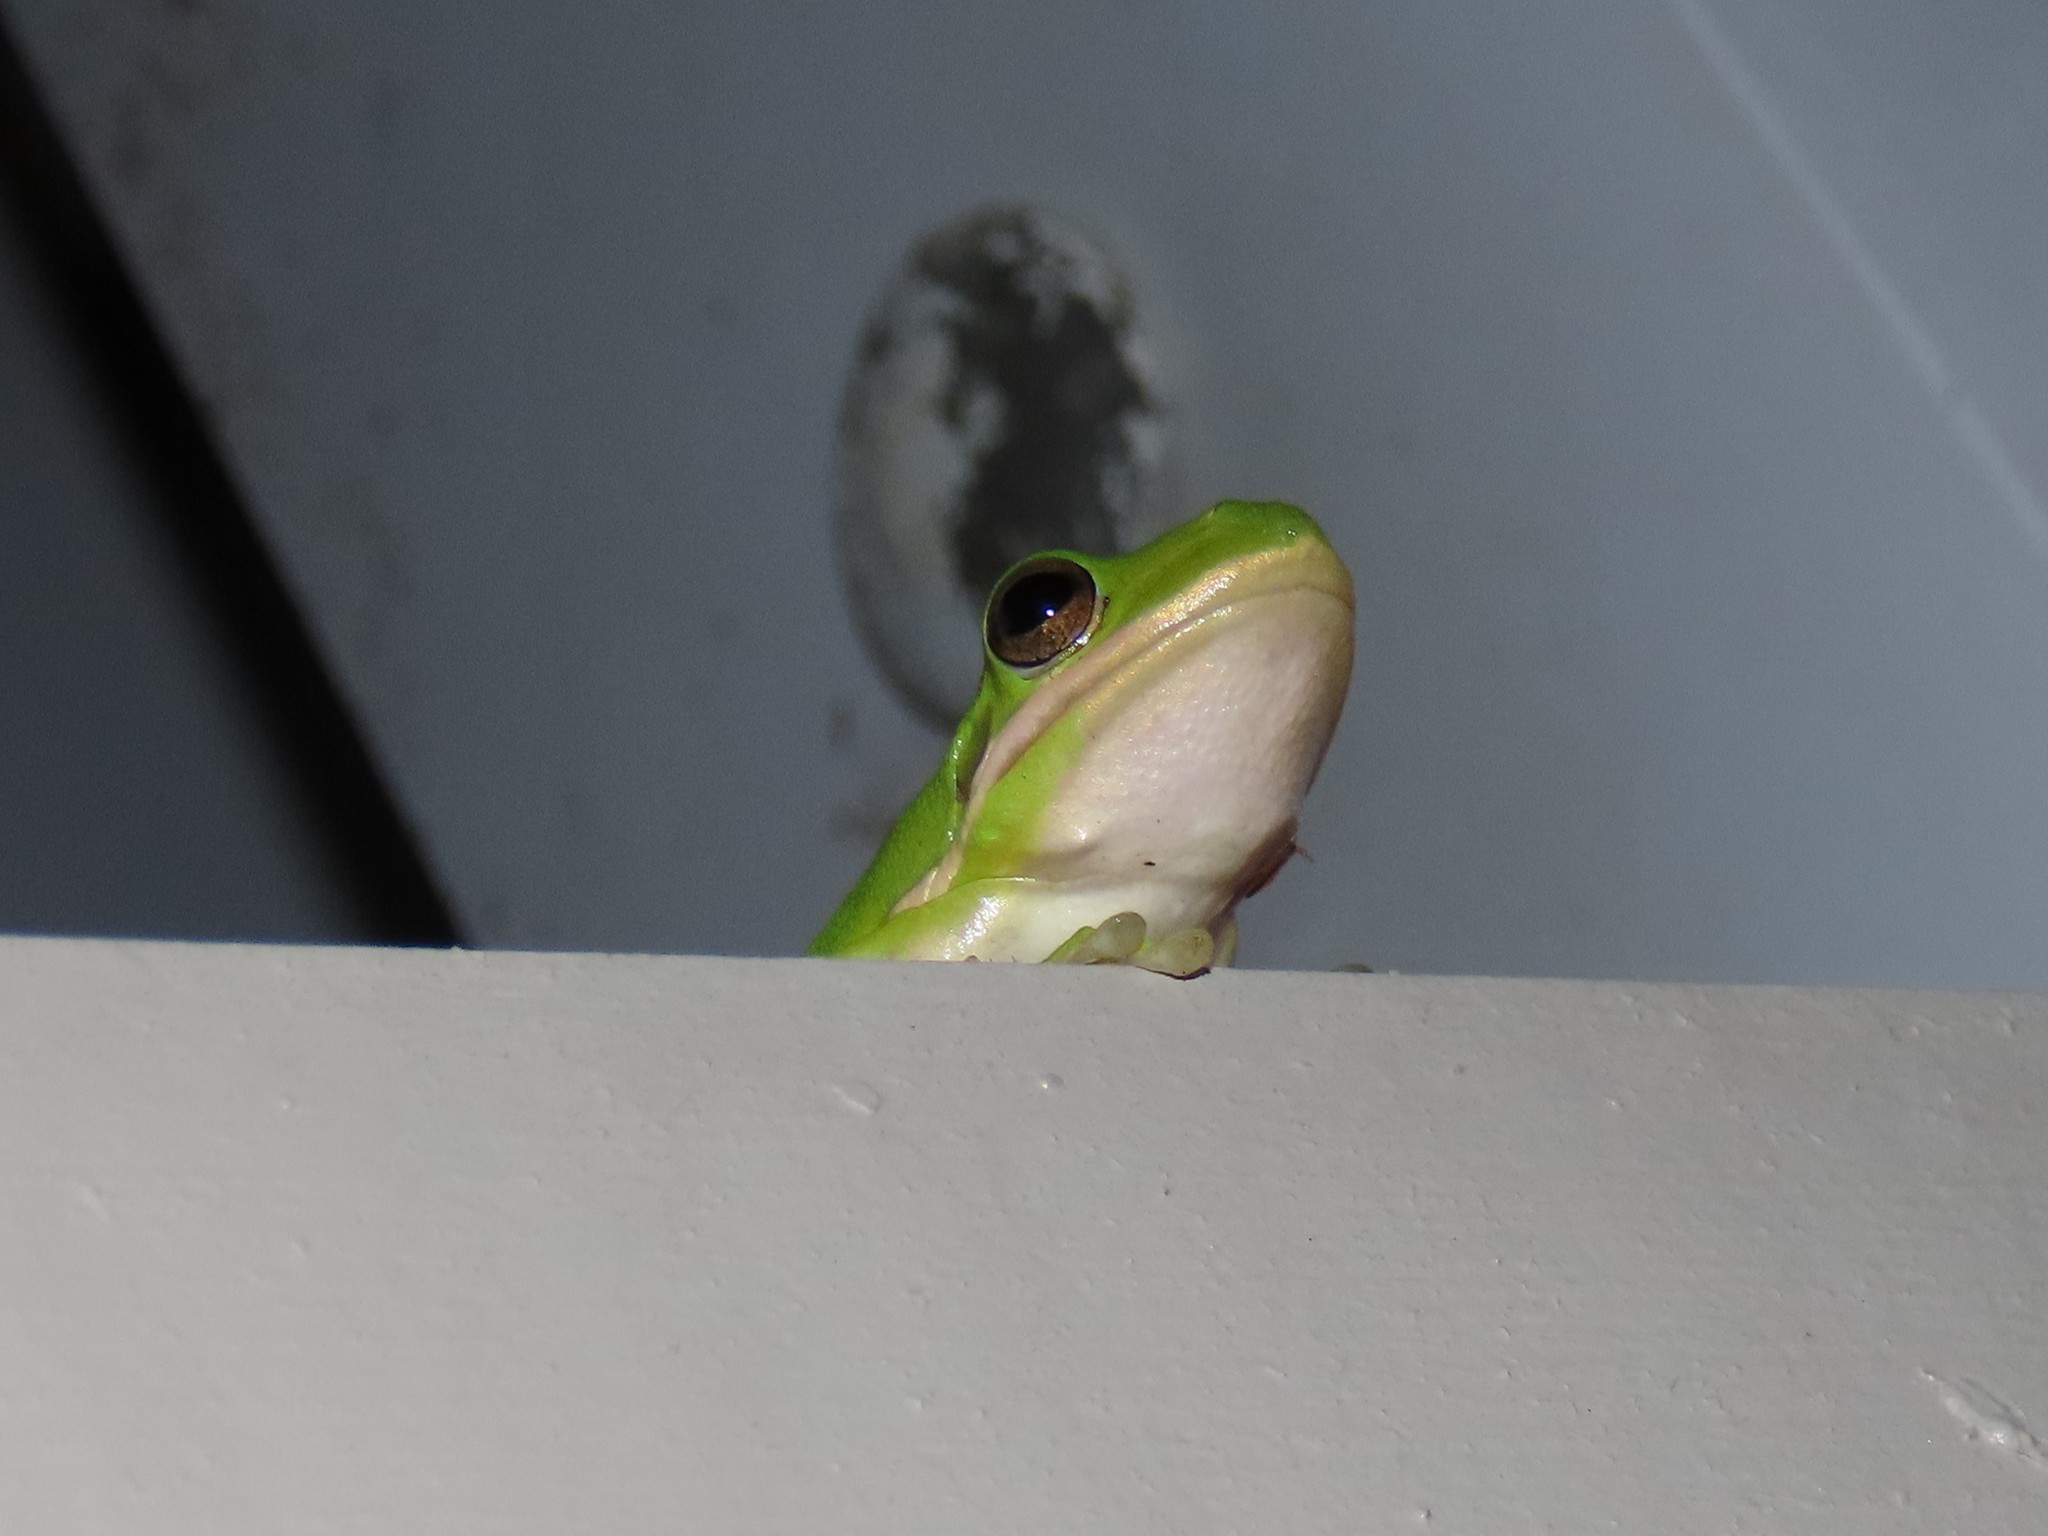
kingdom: Animalia
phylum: Chordata
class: Amphibia
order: Anura
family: Hylidae
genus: Dryophytes
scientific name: Dryophytes cinereus
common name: Green treefrog
